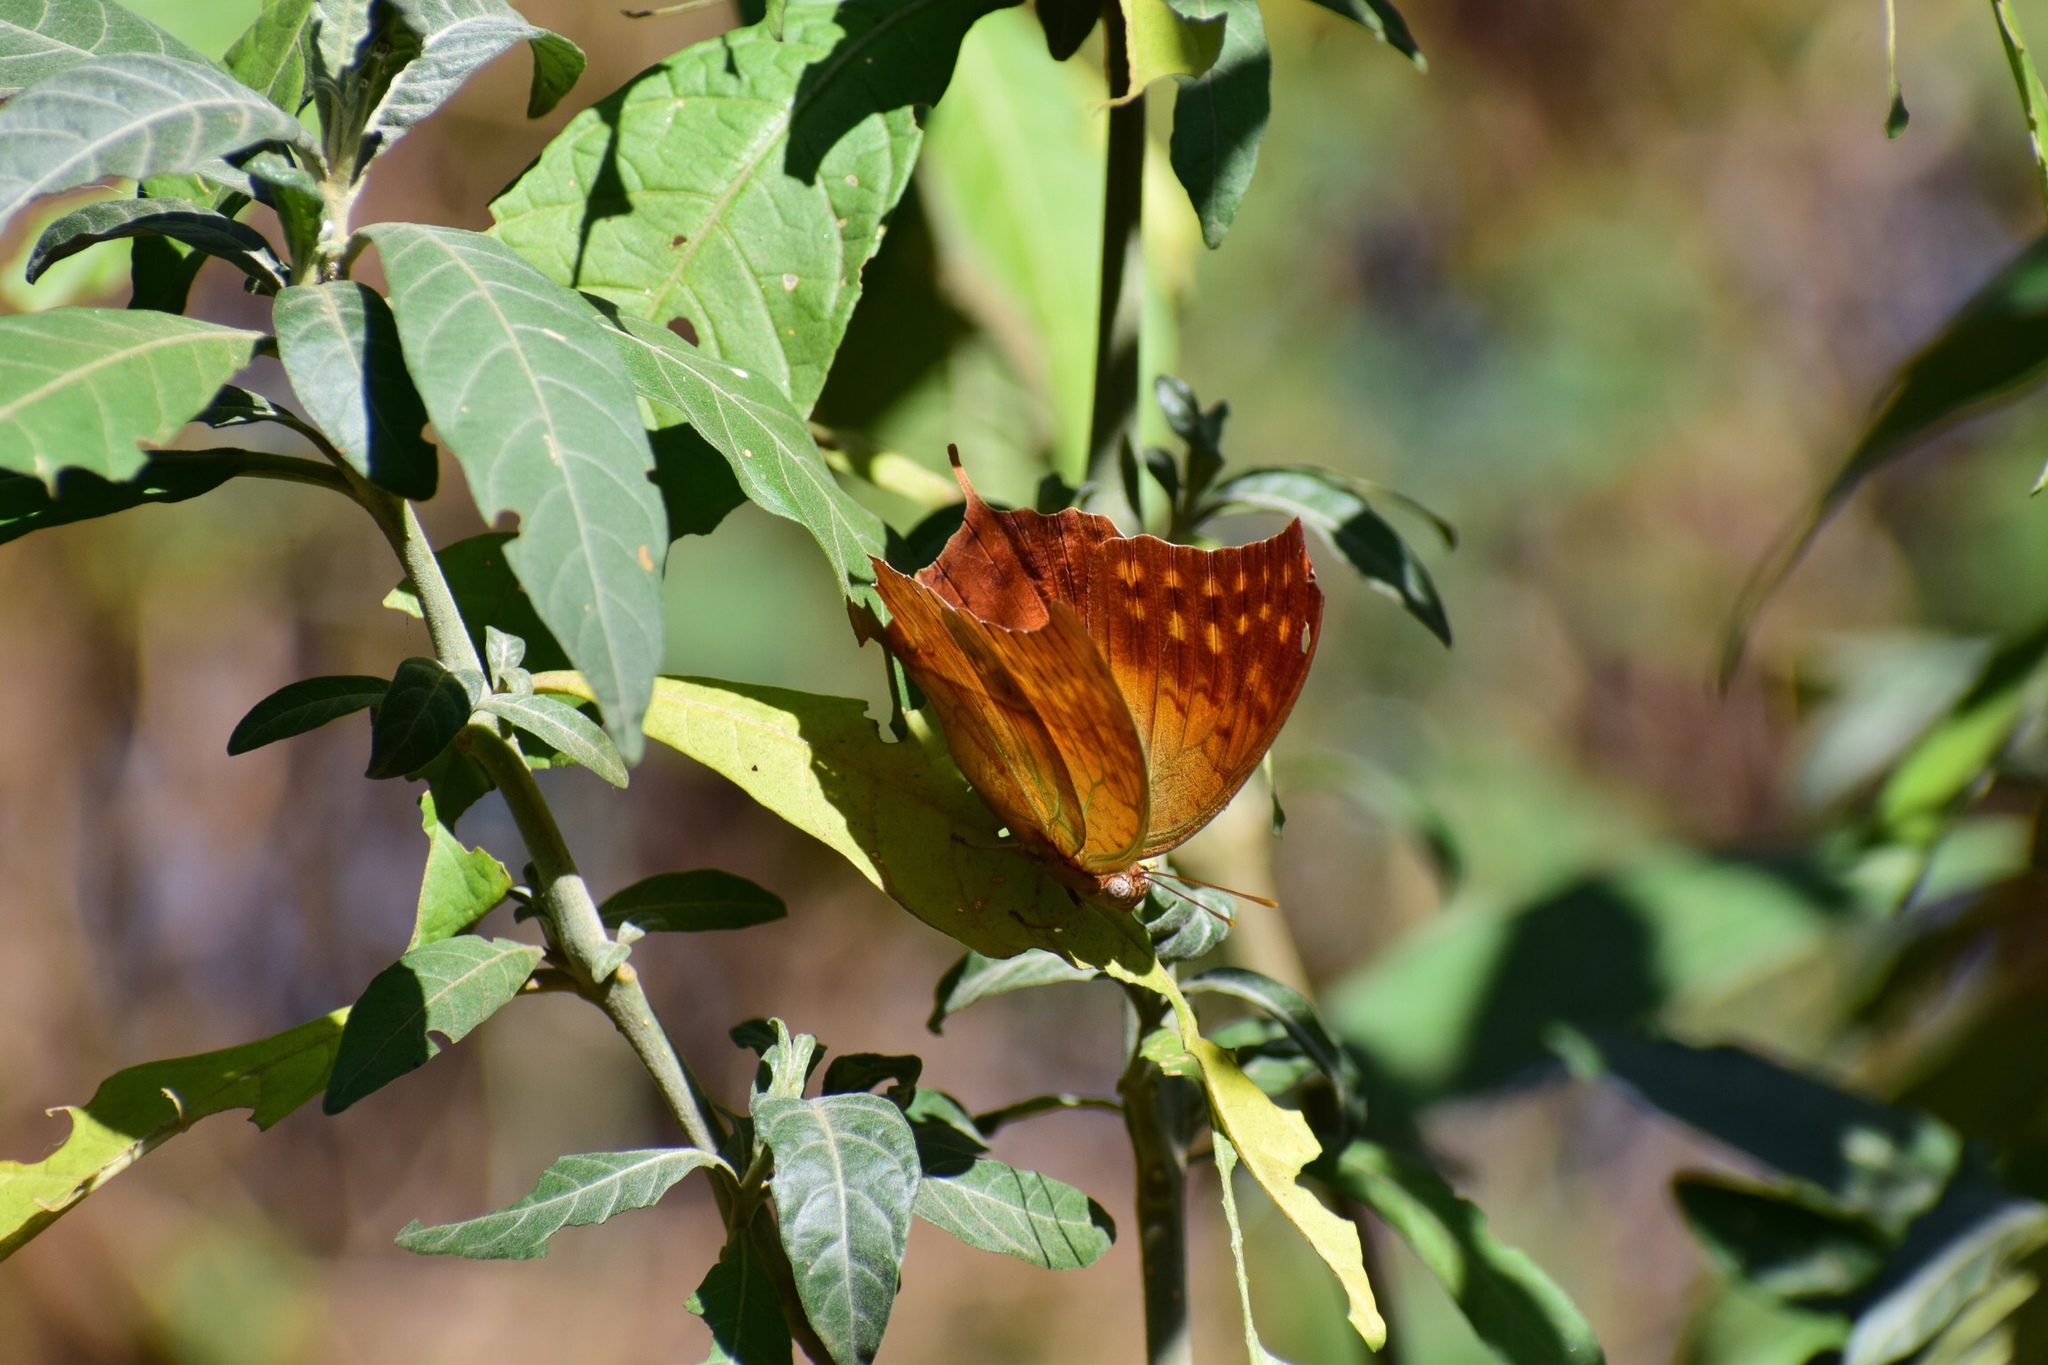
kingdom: Animalia
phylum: Arthropoda
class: Insecta
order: Lepidoptera
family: Nymphalidae
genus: Charaxes
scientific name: Charaxes varanes
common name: Common pearl charaxes
